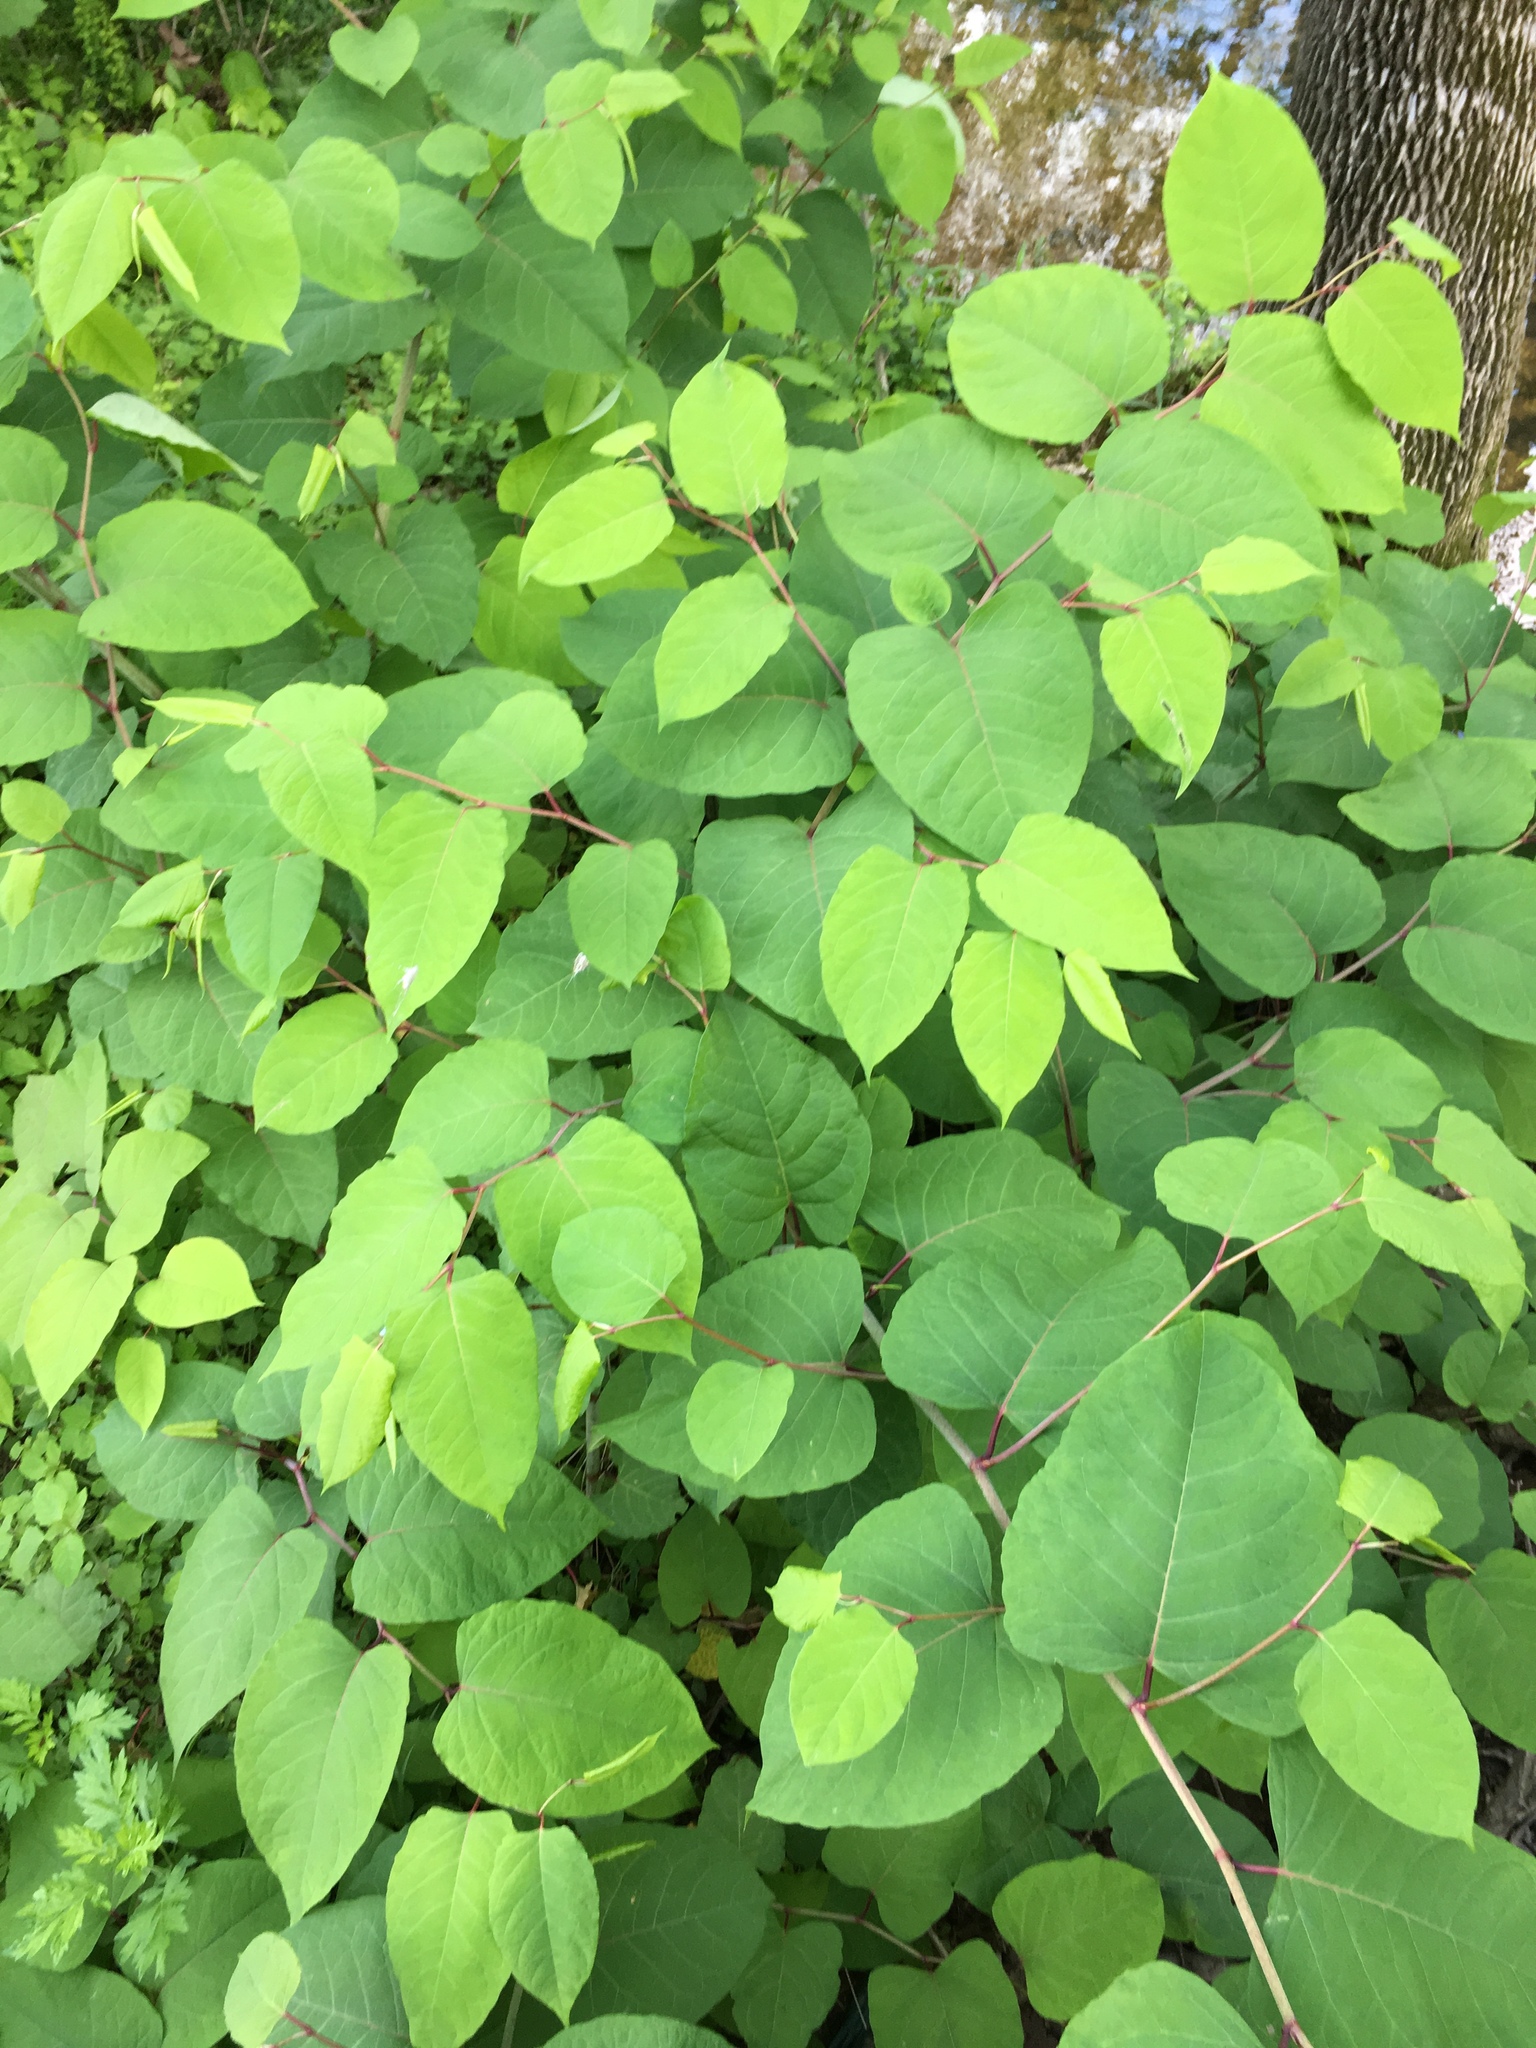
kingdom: Plantae
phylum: Tracheophyta
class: Magnoliopsida
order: Caryophyllales
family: Polygonaceae
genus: Reynoutria
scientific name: Reynoutria japonica
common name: Japanese knotweed
